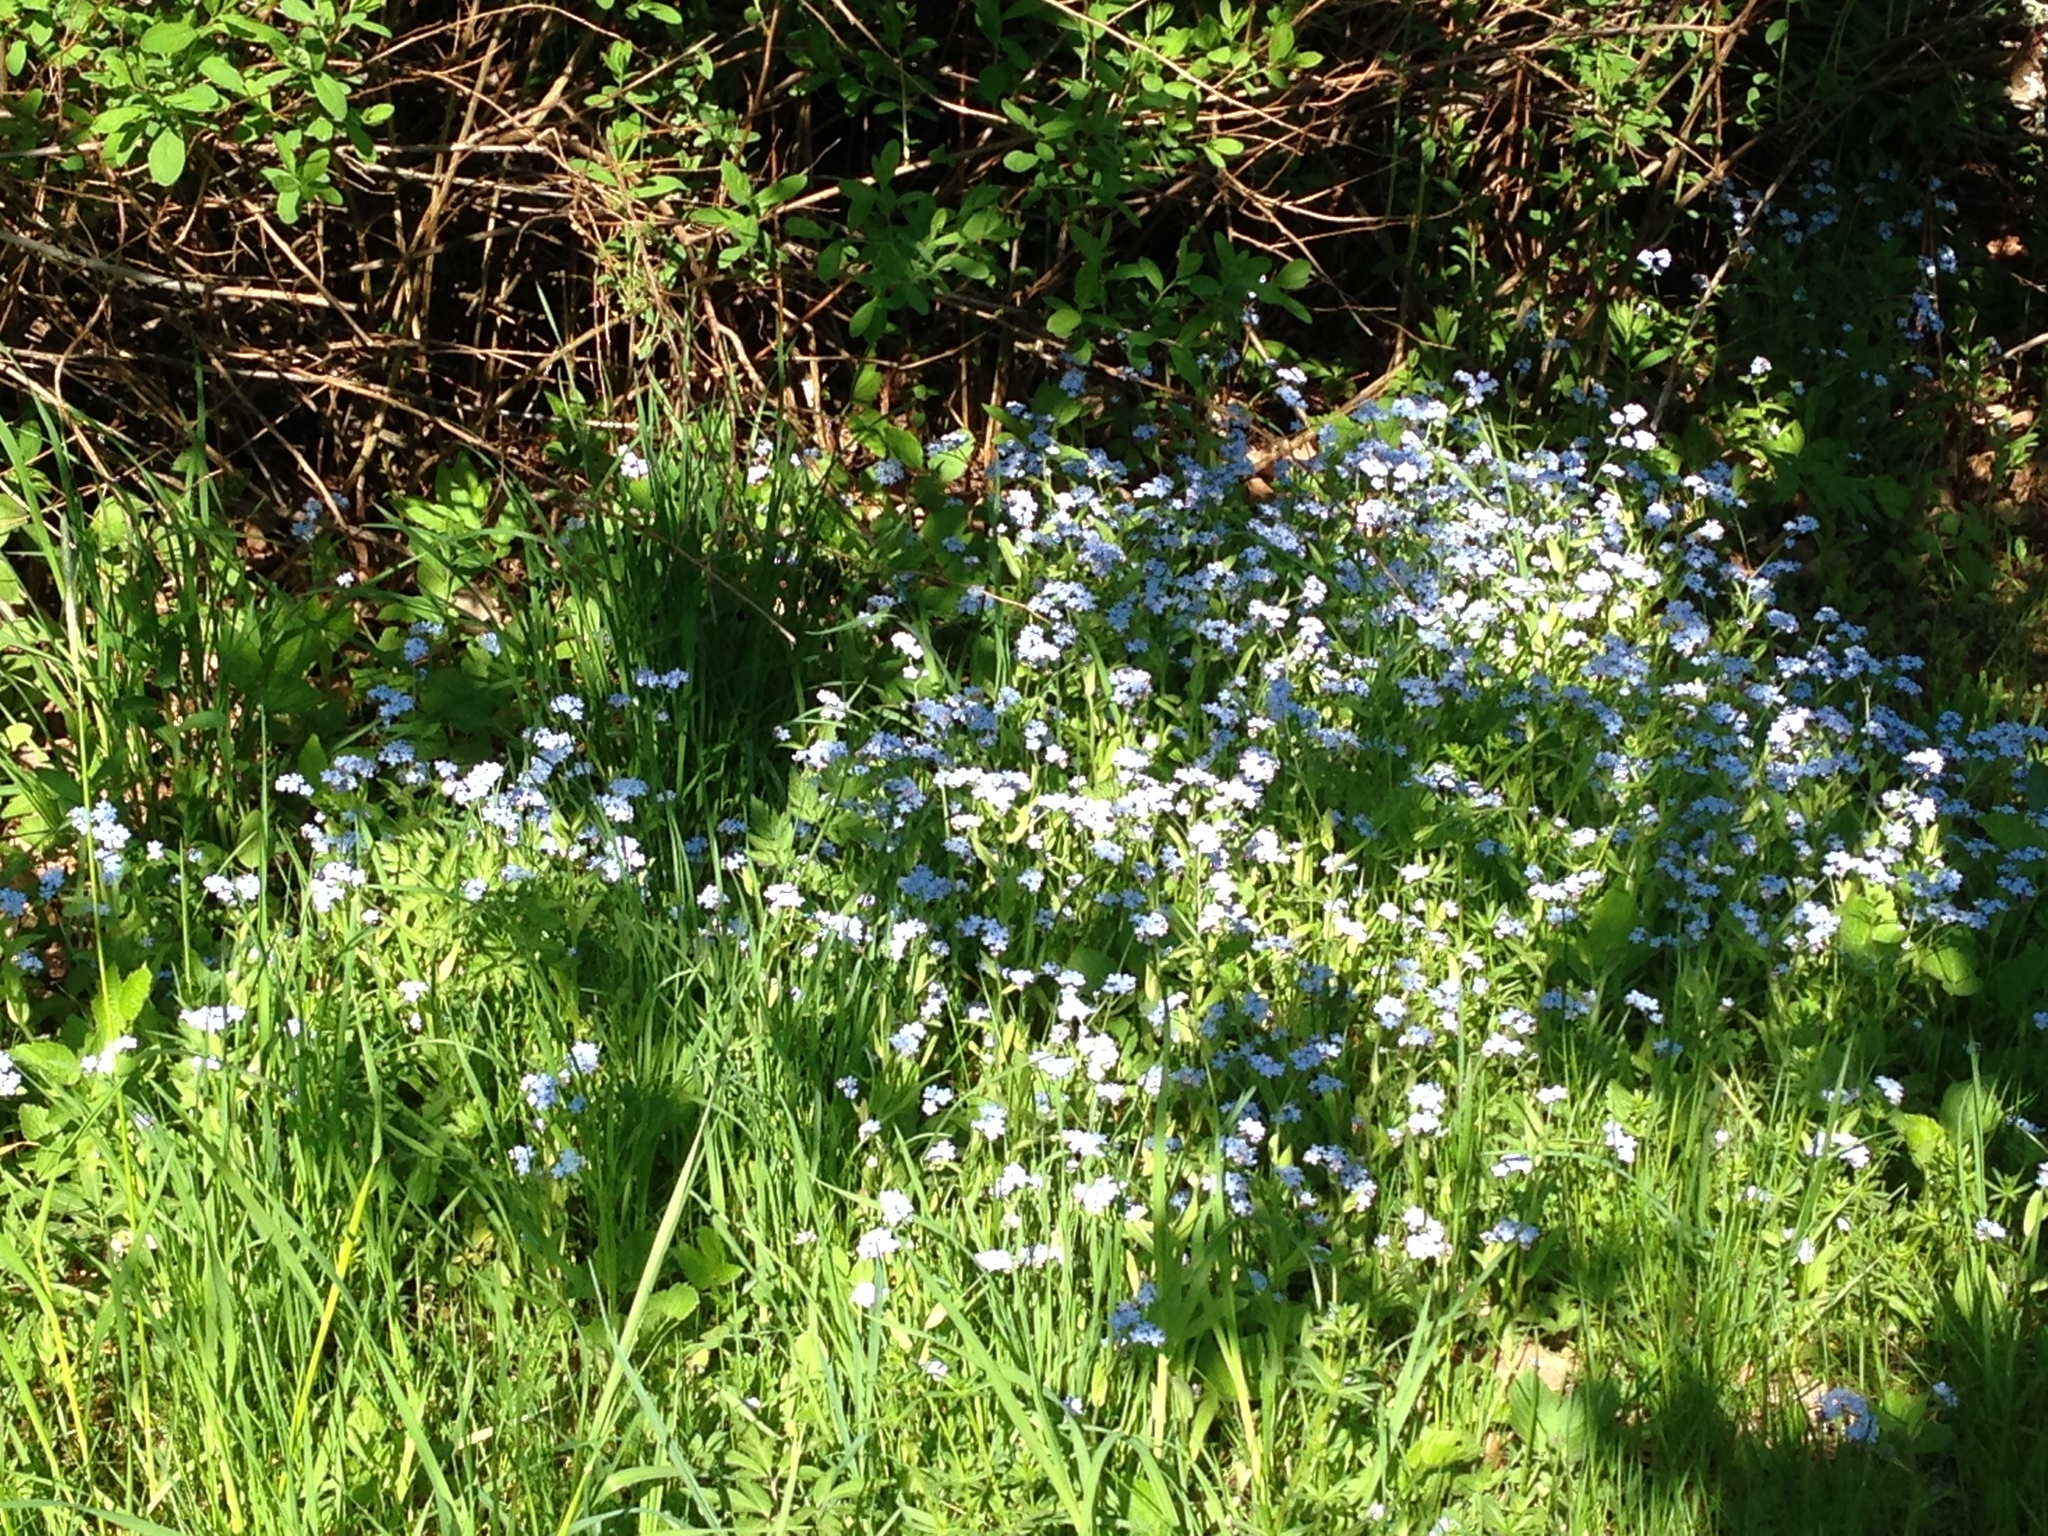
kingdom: Plantae
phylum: Tracheophyta
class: Magnoliopsida
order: Boraginales
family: Boraginaceae
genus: Myosotis
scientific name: Myosotis scorpioides
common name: Water forget-me-not
